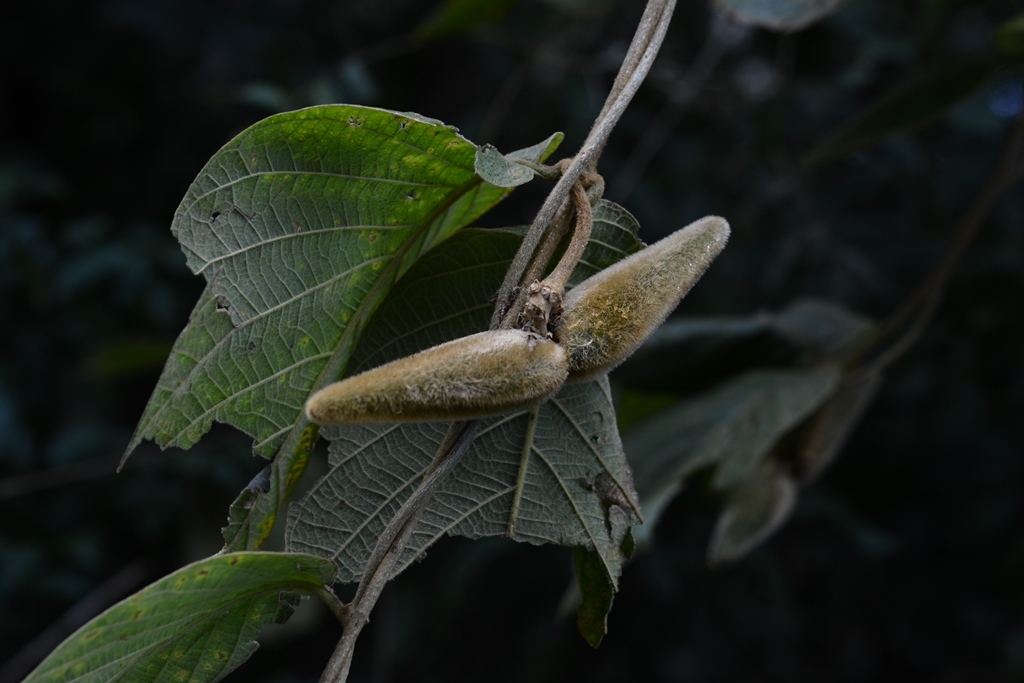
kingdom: Plantae
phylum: Tracheophyta
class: Magnoliopsida
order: Gentianales
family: Apocynaceae
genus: Prestonia
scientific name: Prestonia mexicana
